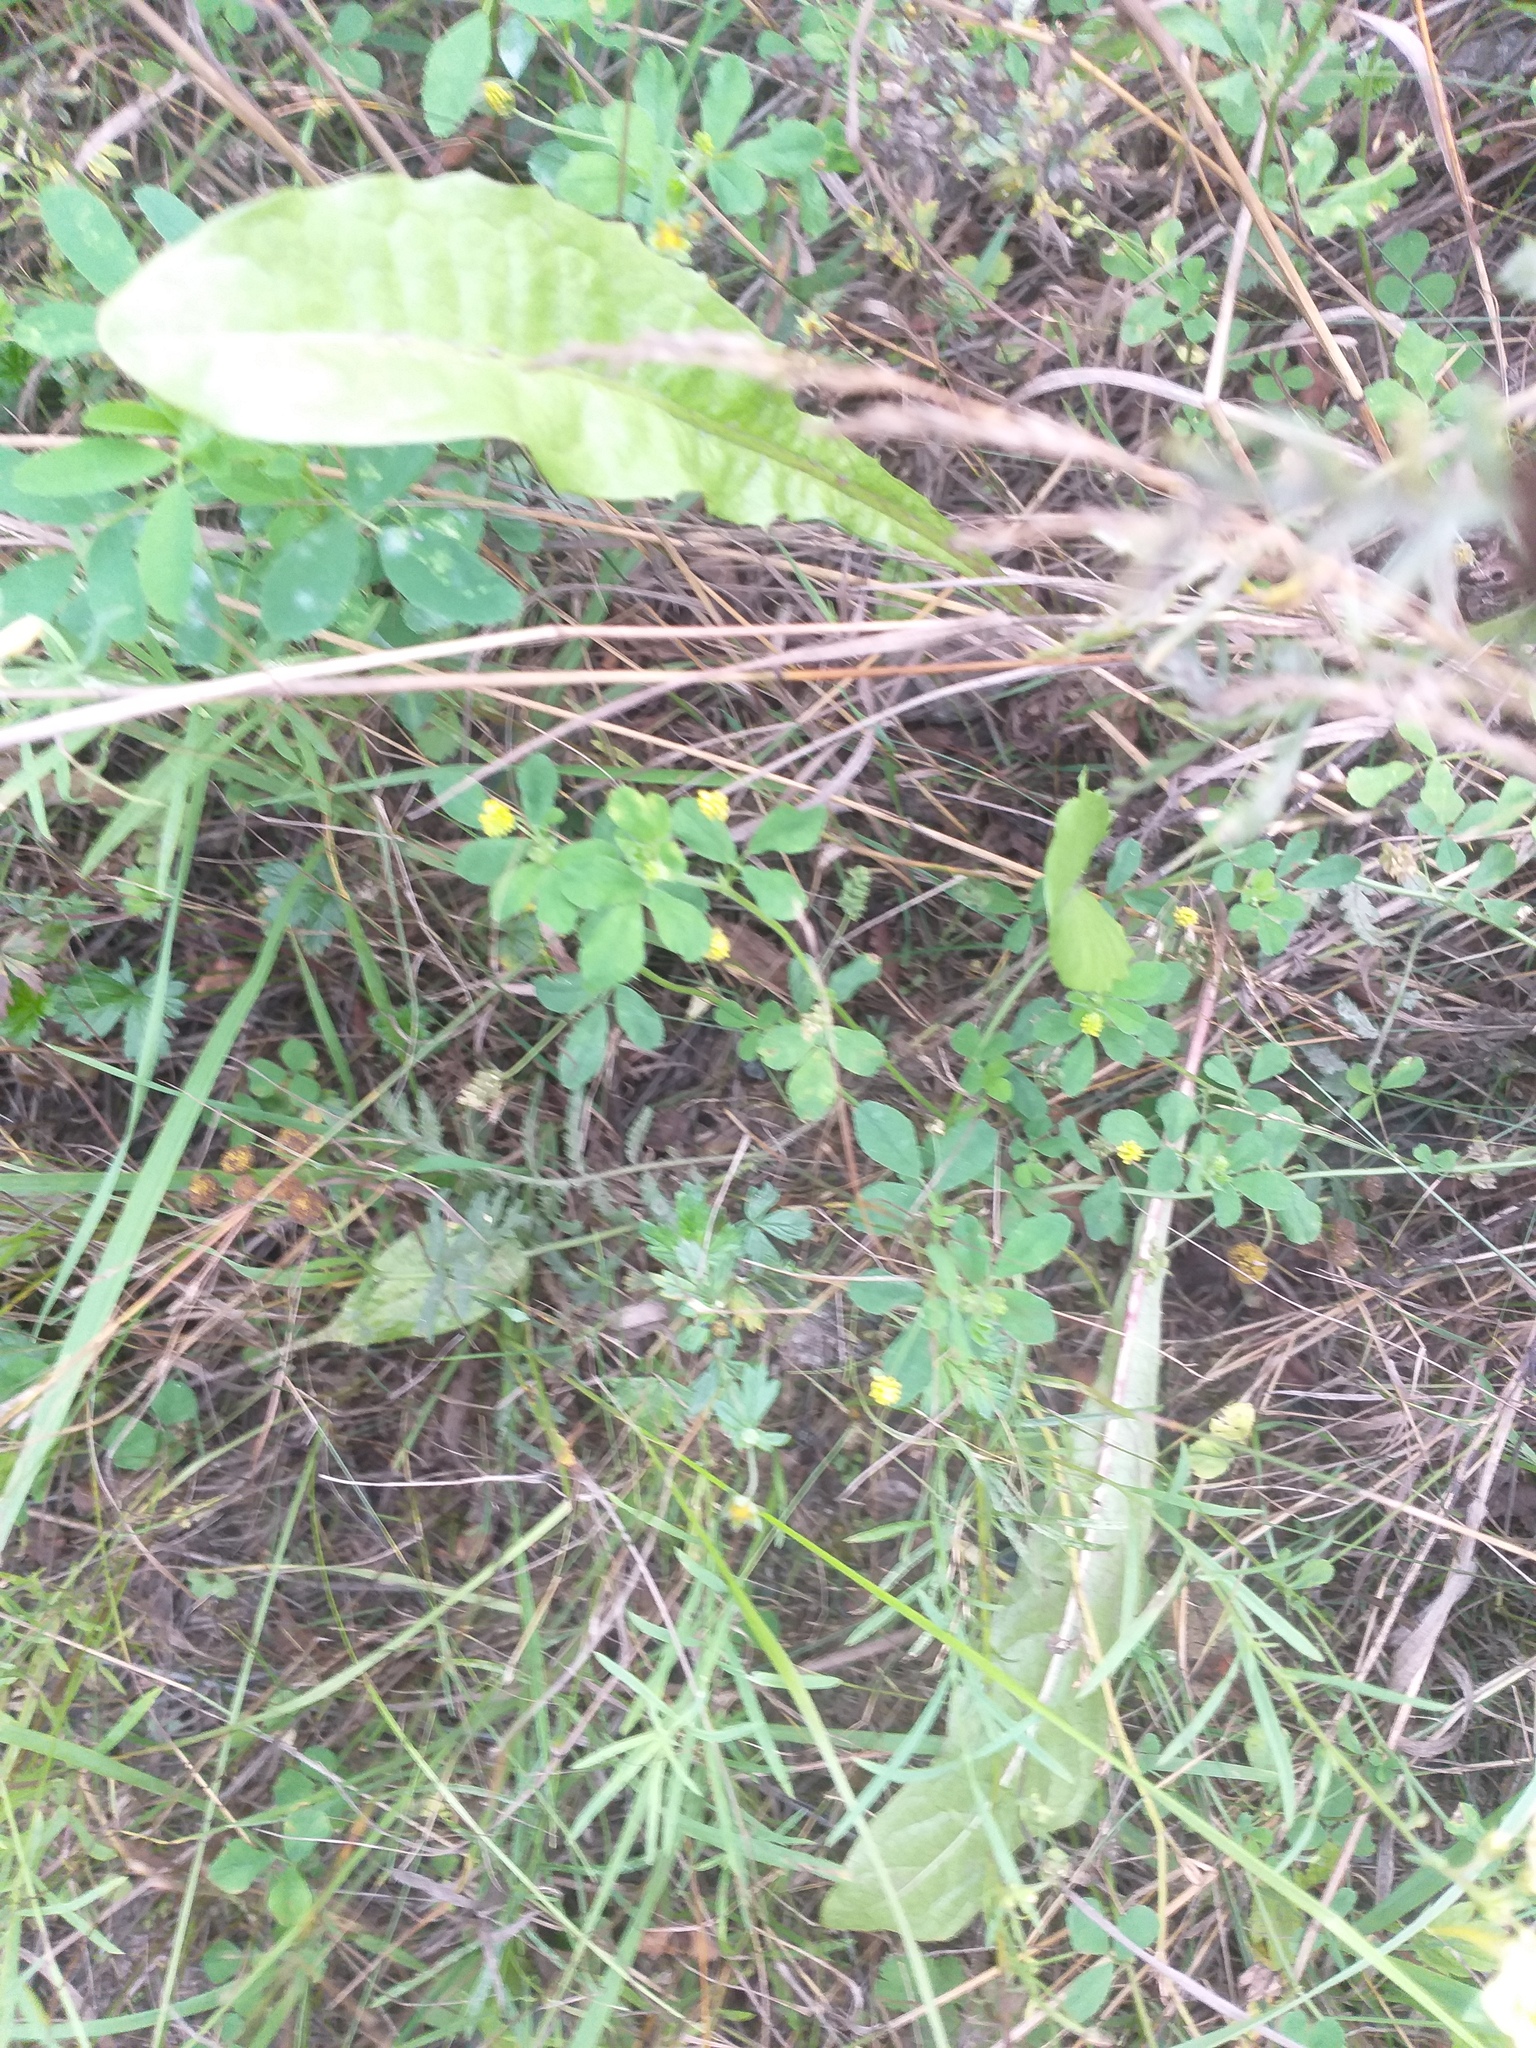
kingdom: Plantae
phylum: Tracheophyta
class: Magnoliopsida
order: Rosales
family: Rosaceae
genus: Potentilla
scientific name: Potentilla argentea
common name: Hoary cinquefoil
